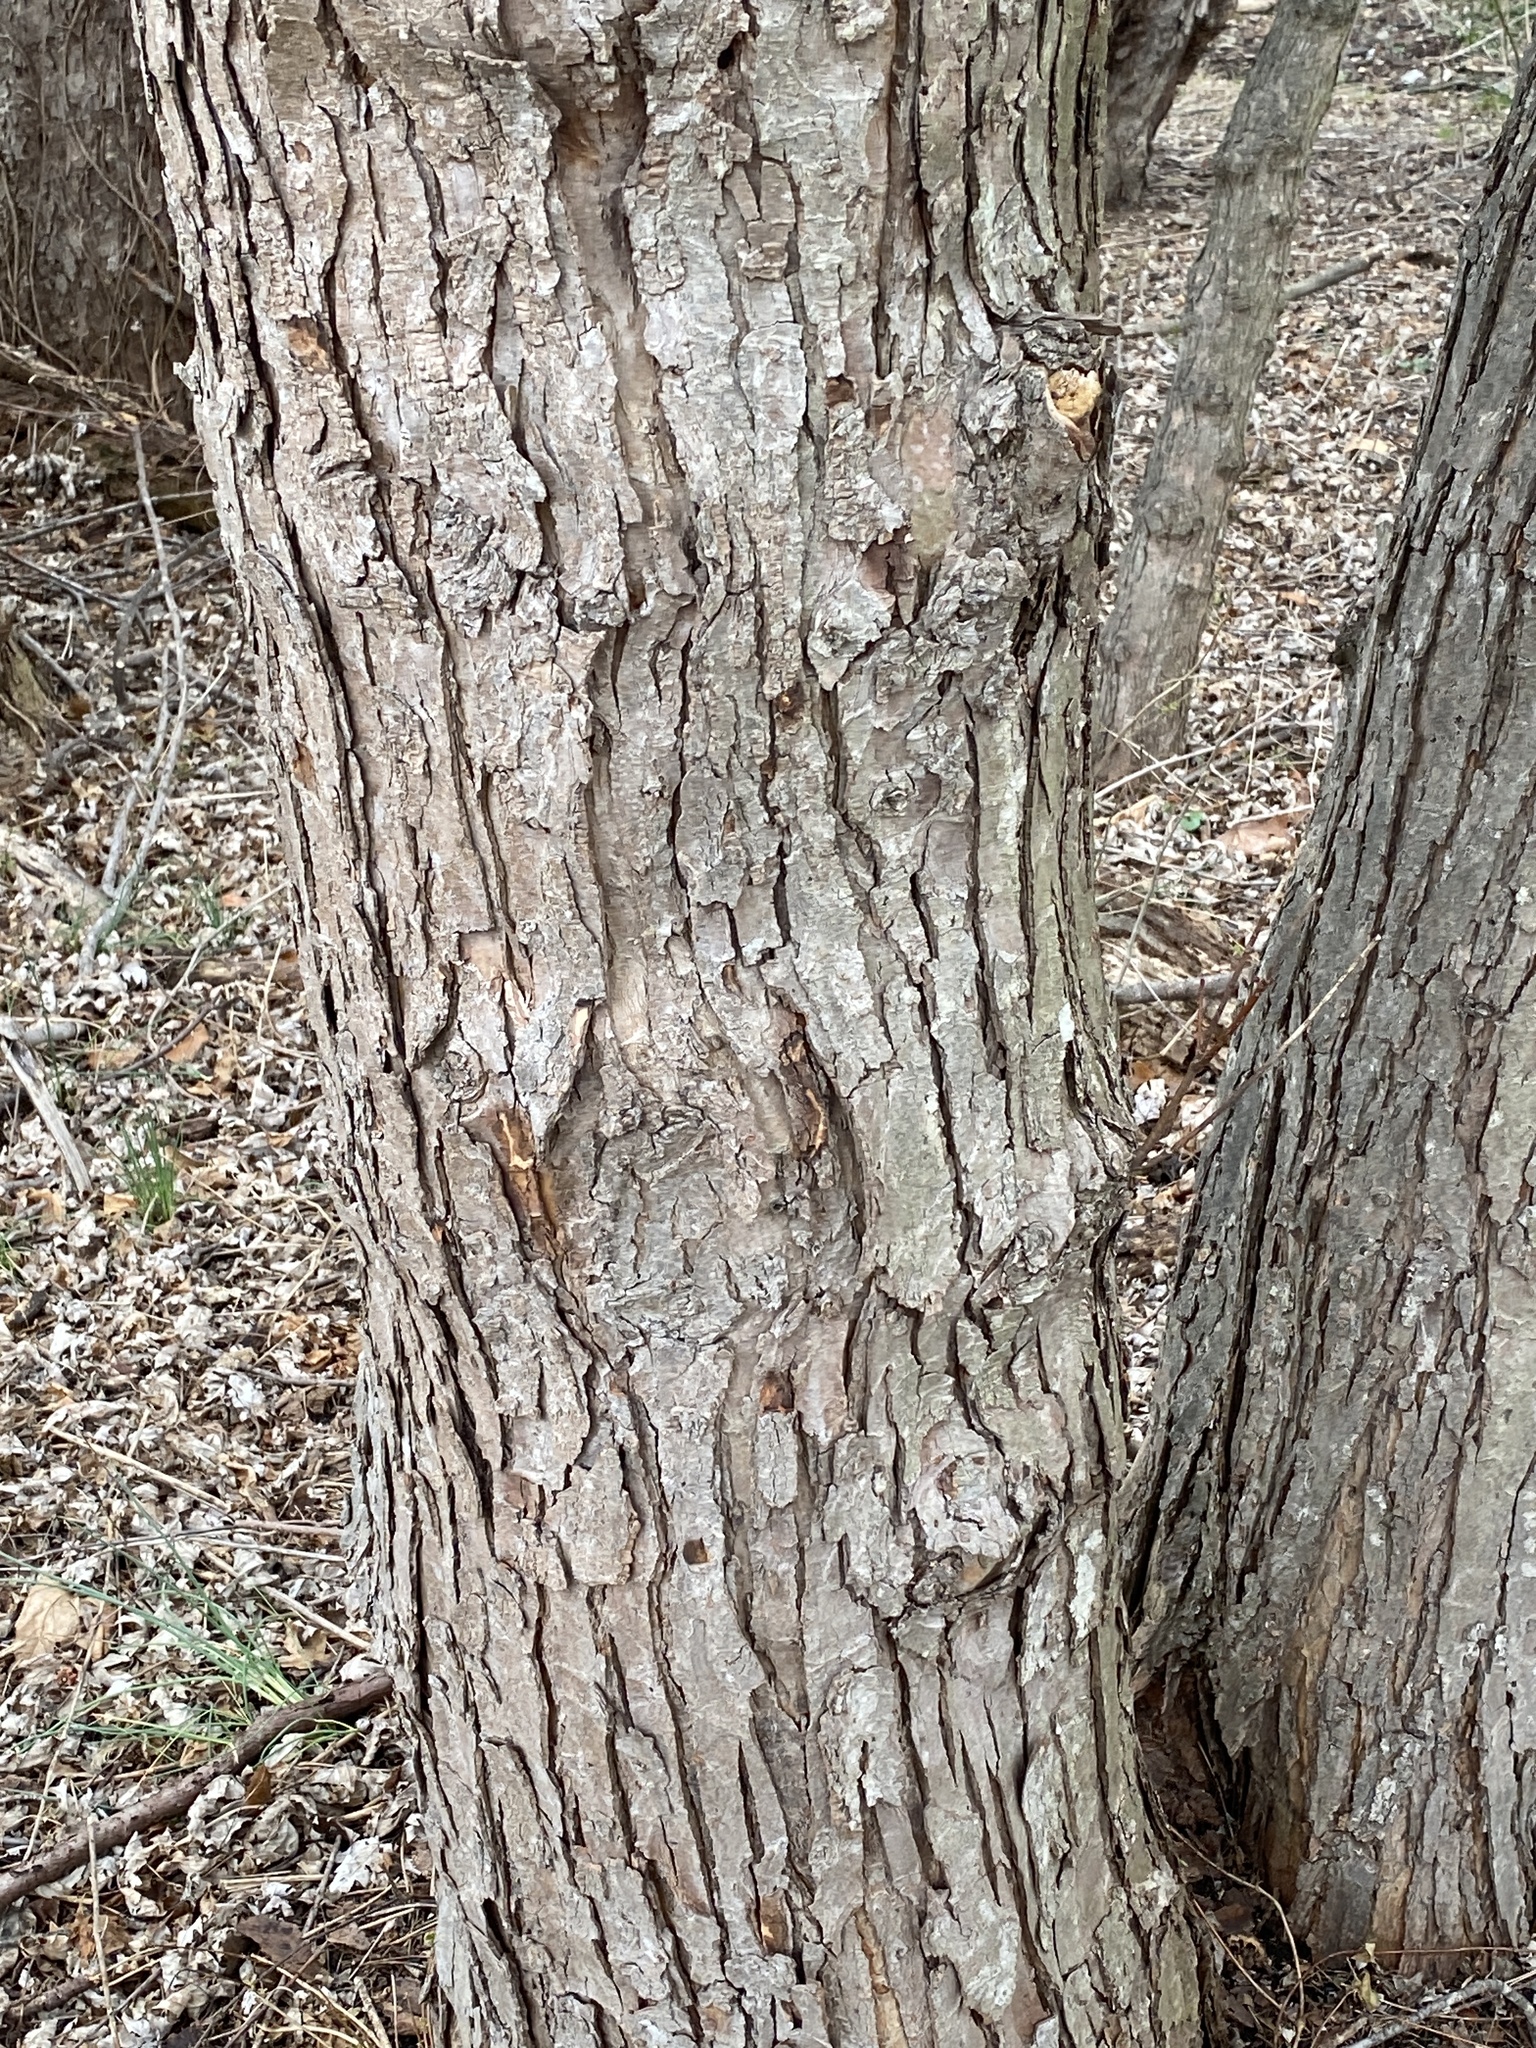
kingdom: Plantae
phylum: Tracheophyta
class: Magnoliopsida
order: Sapindales
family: Sapindaceae
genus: Acer
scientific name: Acer saccharinum
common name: Silver maple
